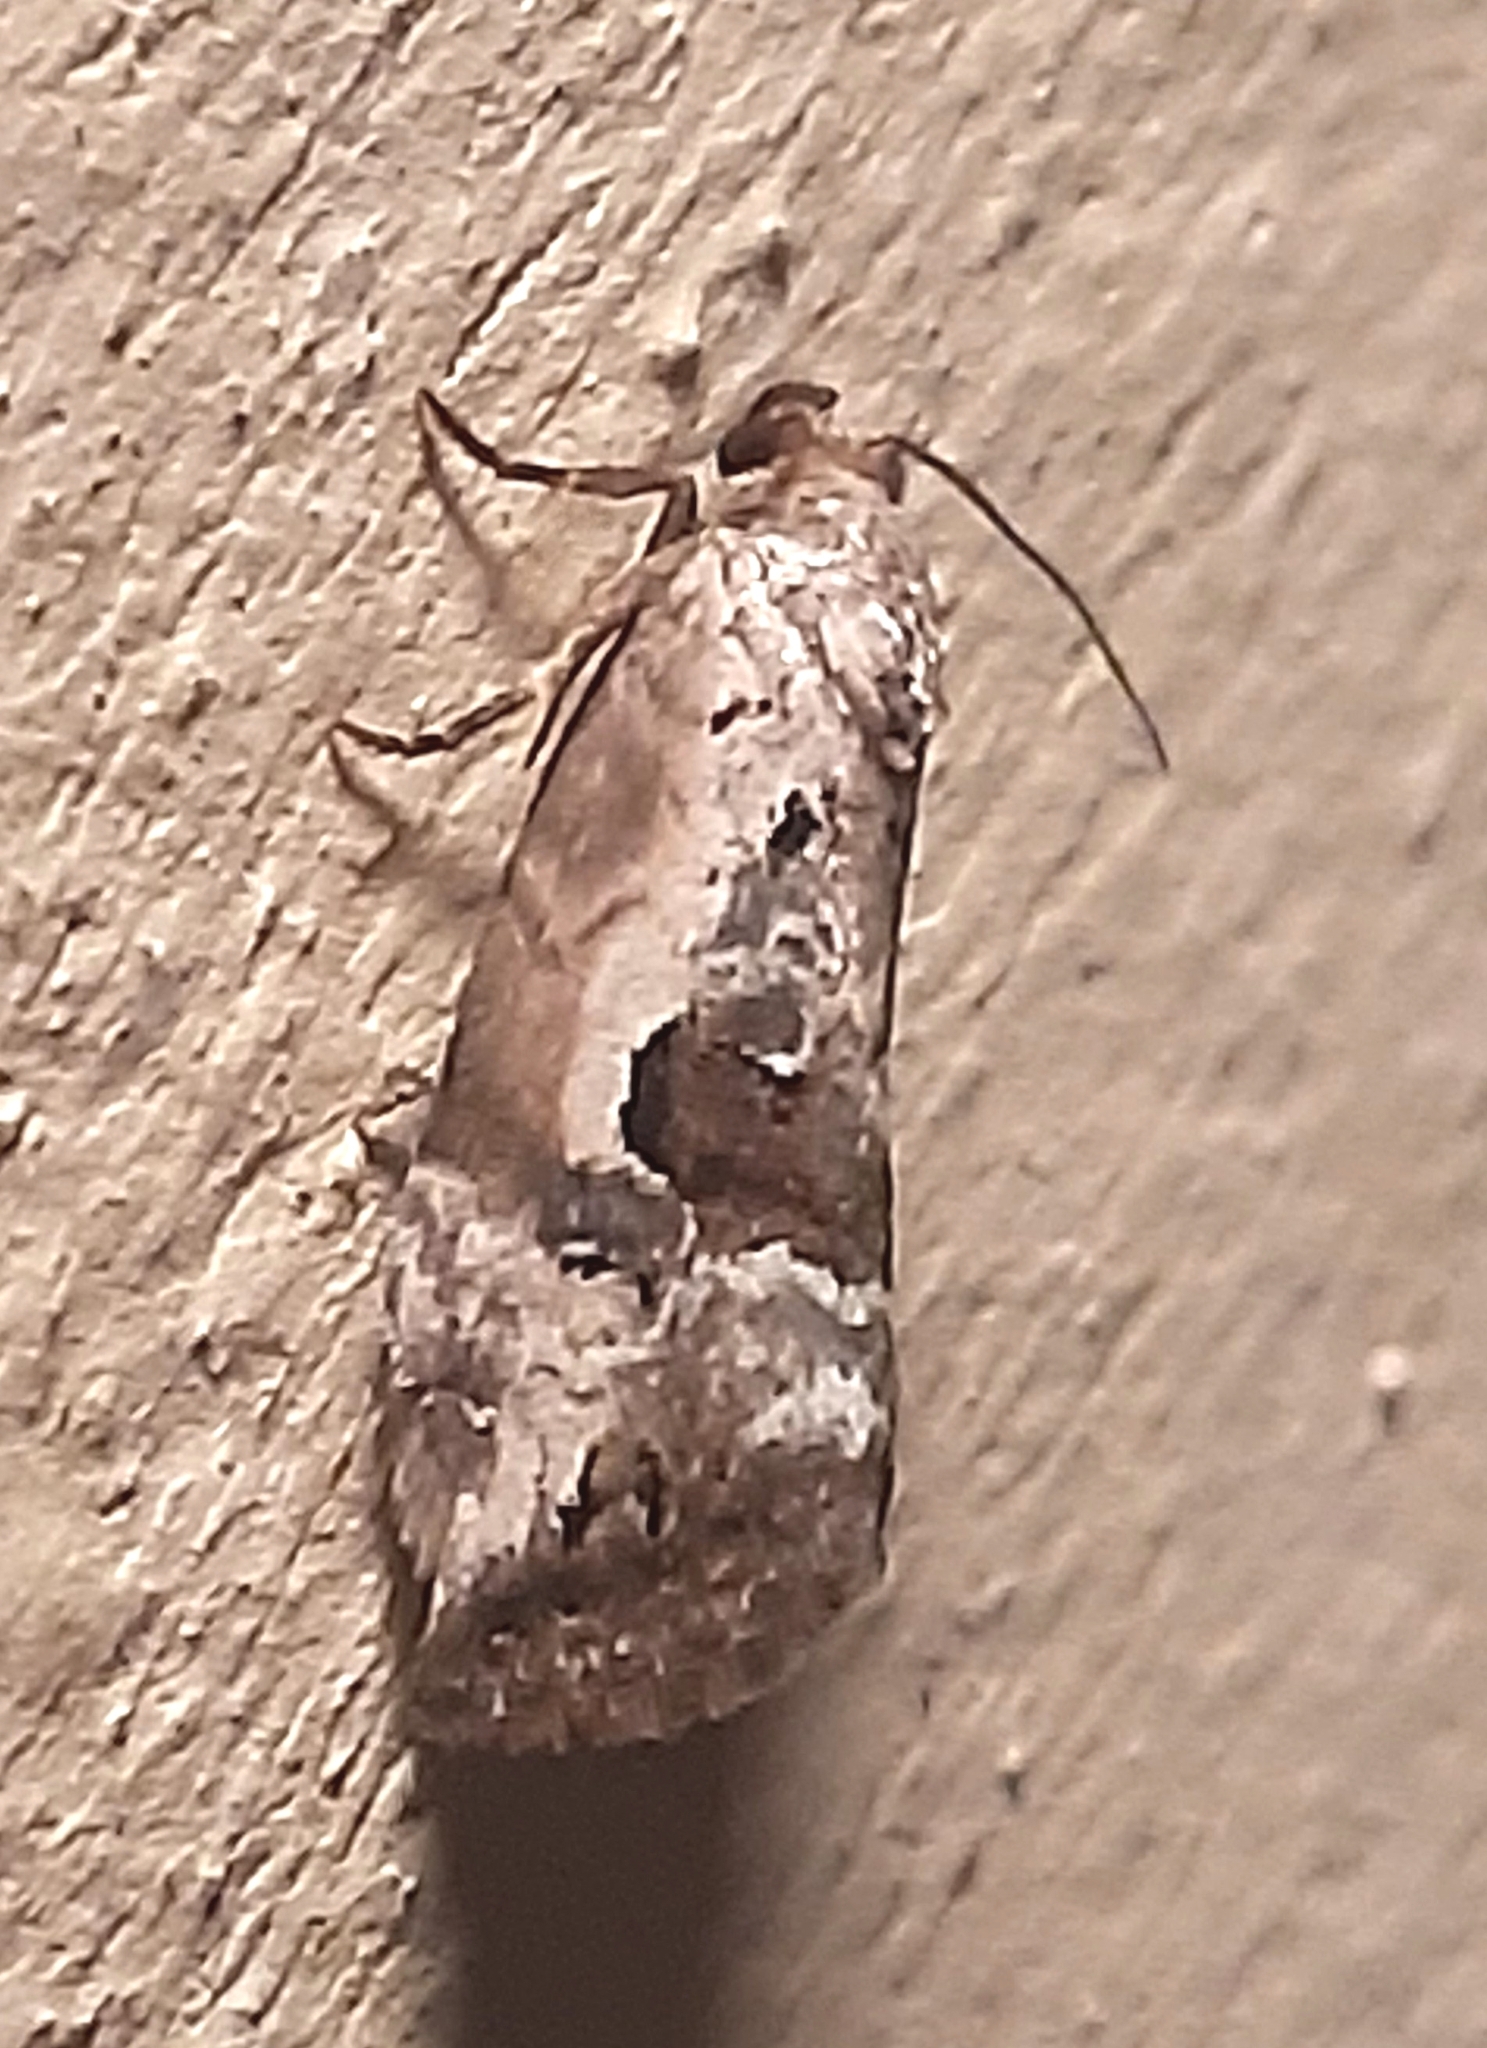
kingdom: Animalia
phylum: Arthropoda
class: Insecta
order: Lepidoptera
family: Noctuidae
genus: Elaphria
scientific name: Elaphria venustula
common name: Rosy marbled
